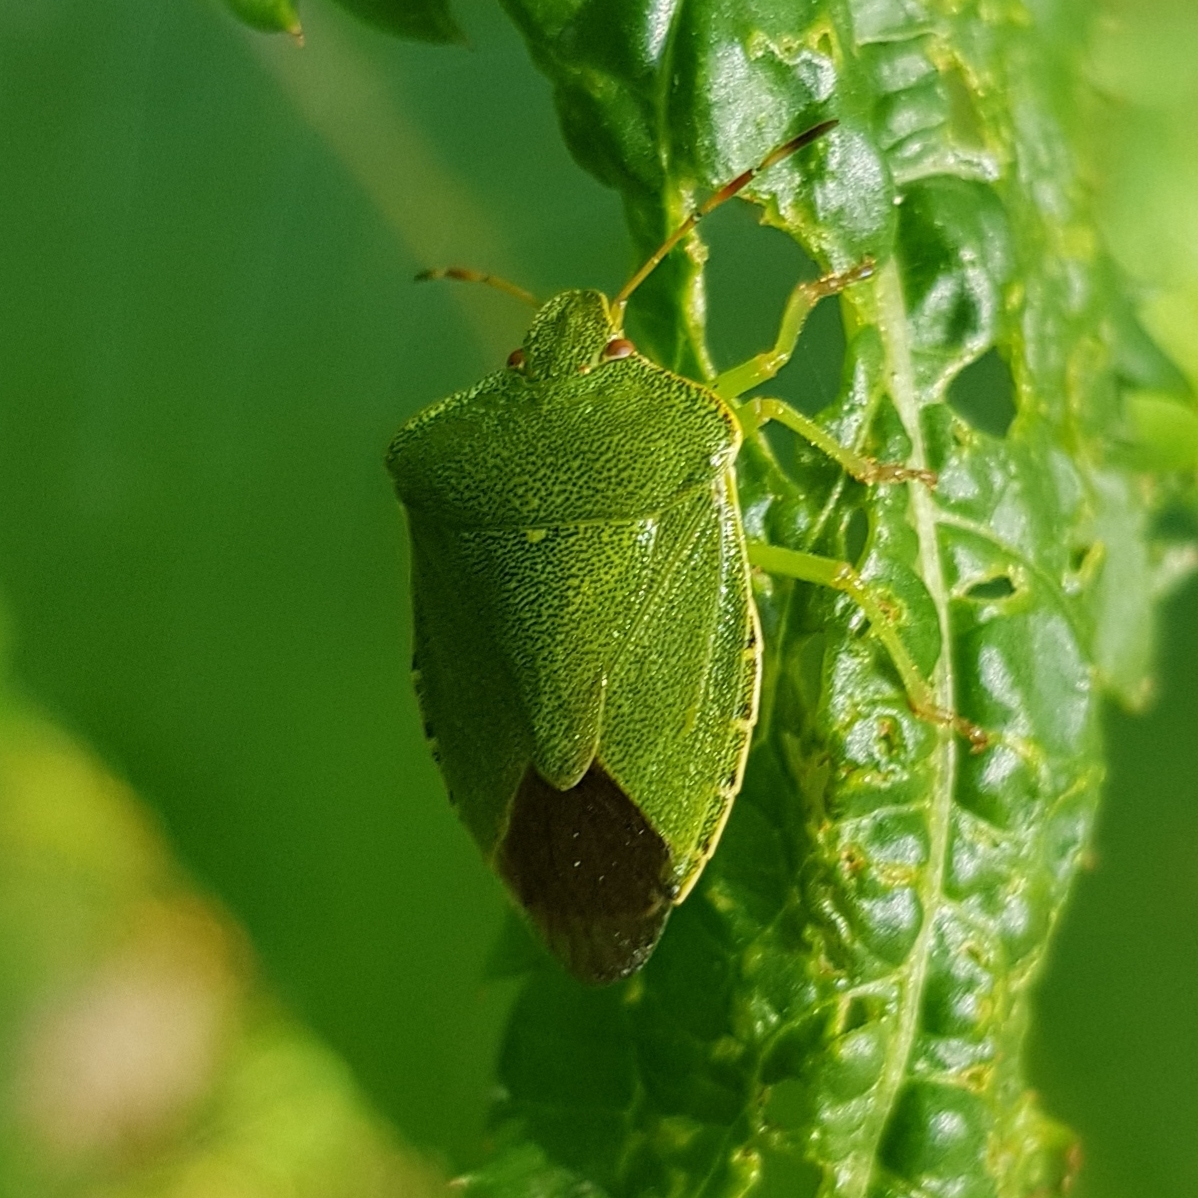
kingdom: Animalia
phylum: Arthropoda
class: Insecta
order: Hemiptera
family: Pentatomidae
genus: Palomena
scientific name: Palomena prasina
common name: Green shieldbug
